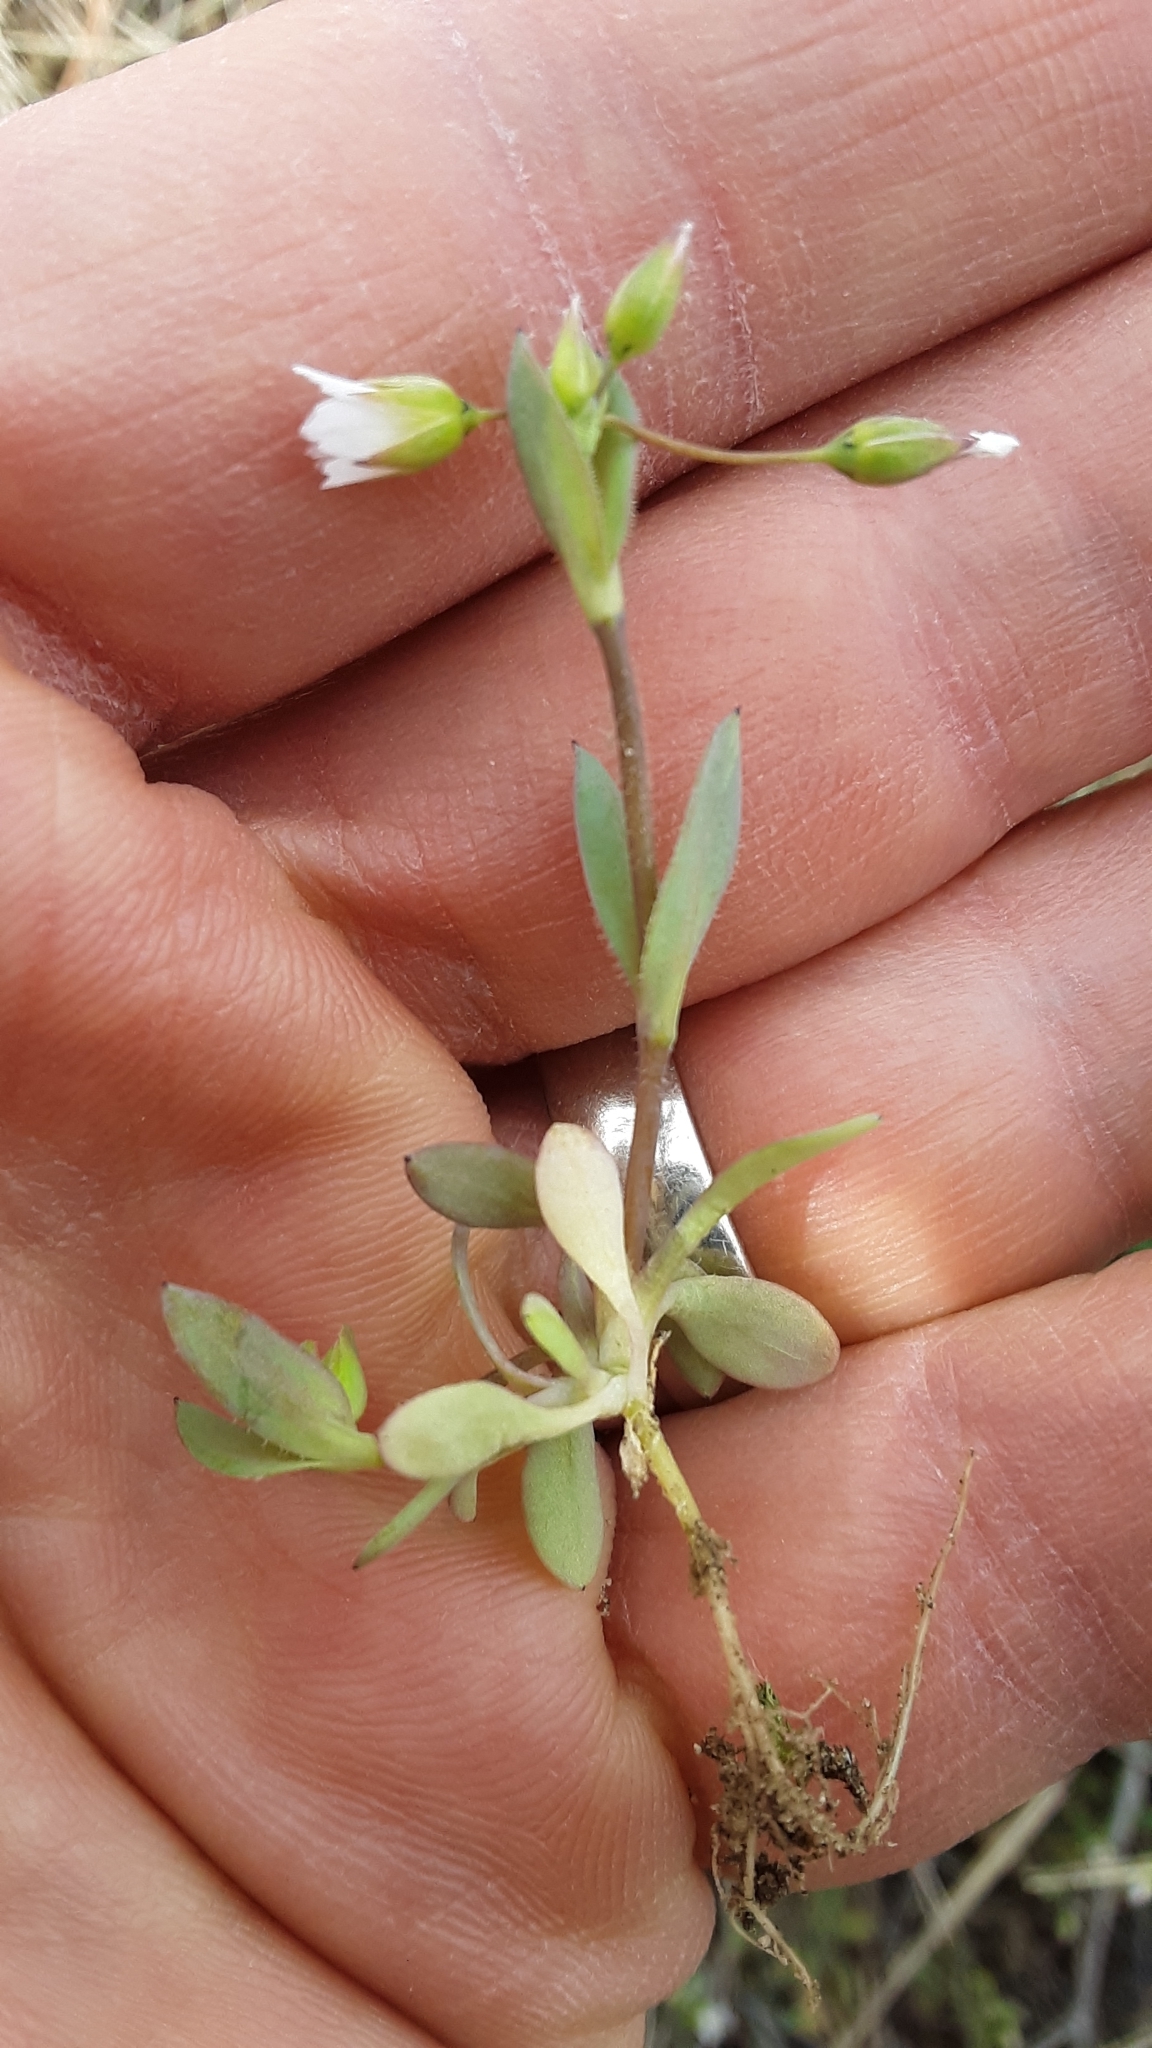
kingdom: Plantae
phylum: Tracheophyta
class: Magnoliopsida
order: Caryophyllales
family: Caryophyllaceae
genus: Holosteum
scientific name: Holosteum umbellatum
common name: Jagged chickweed
